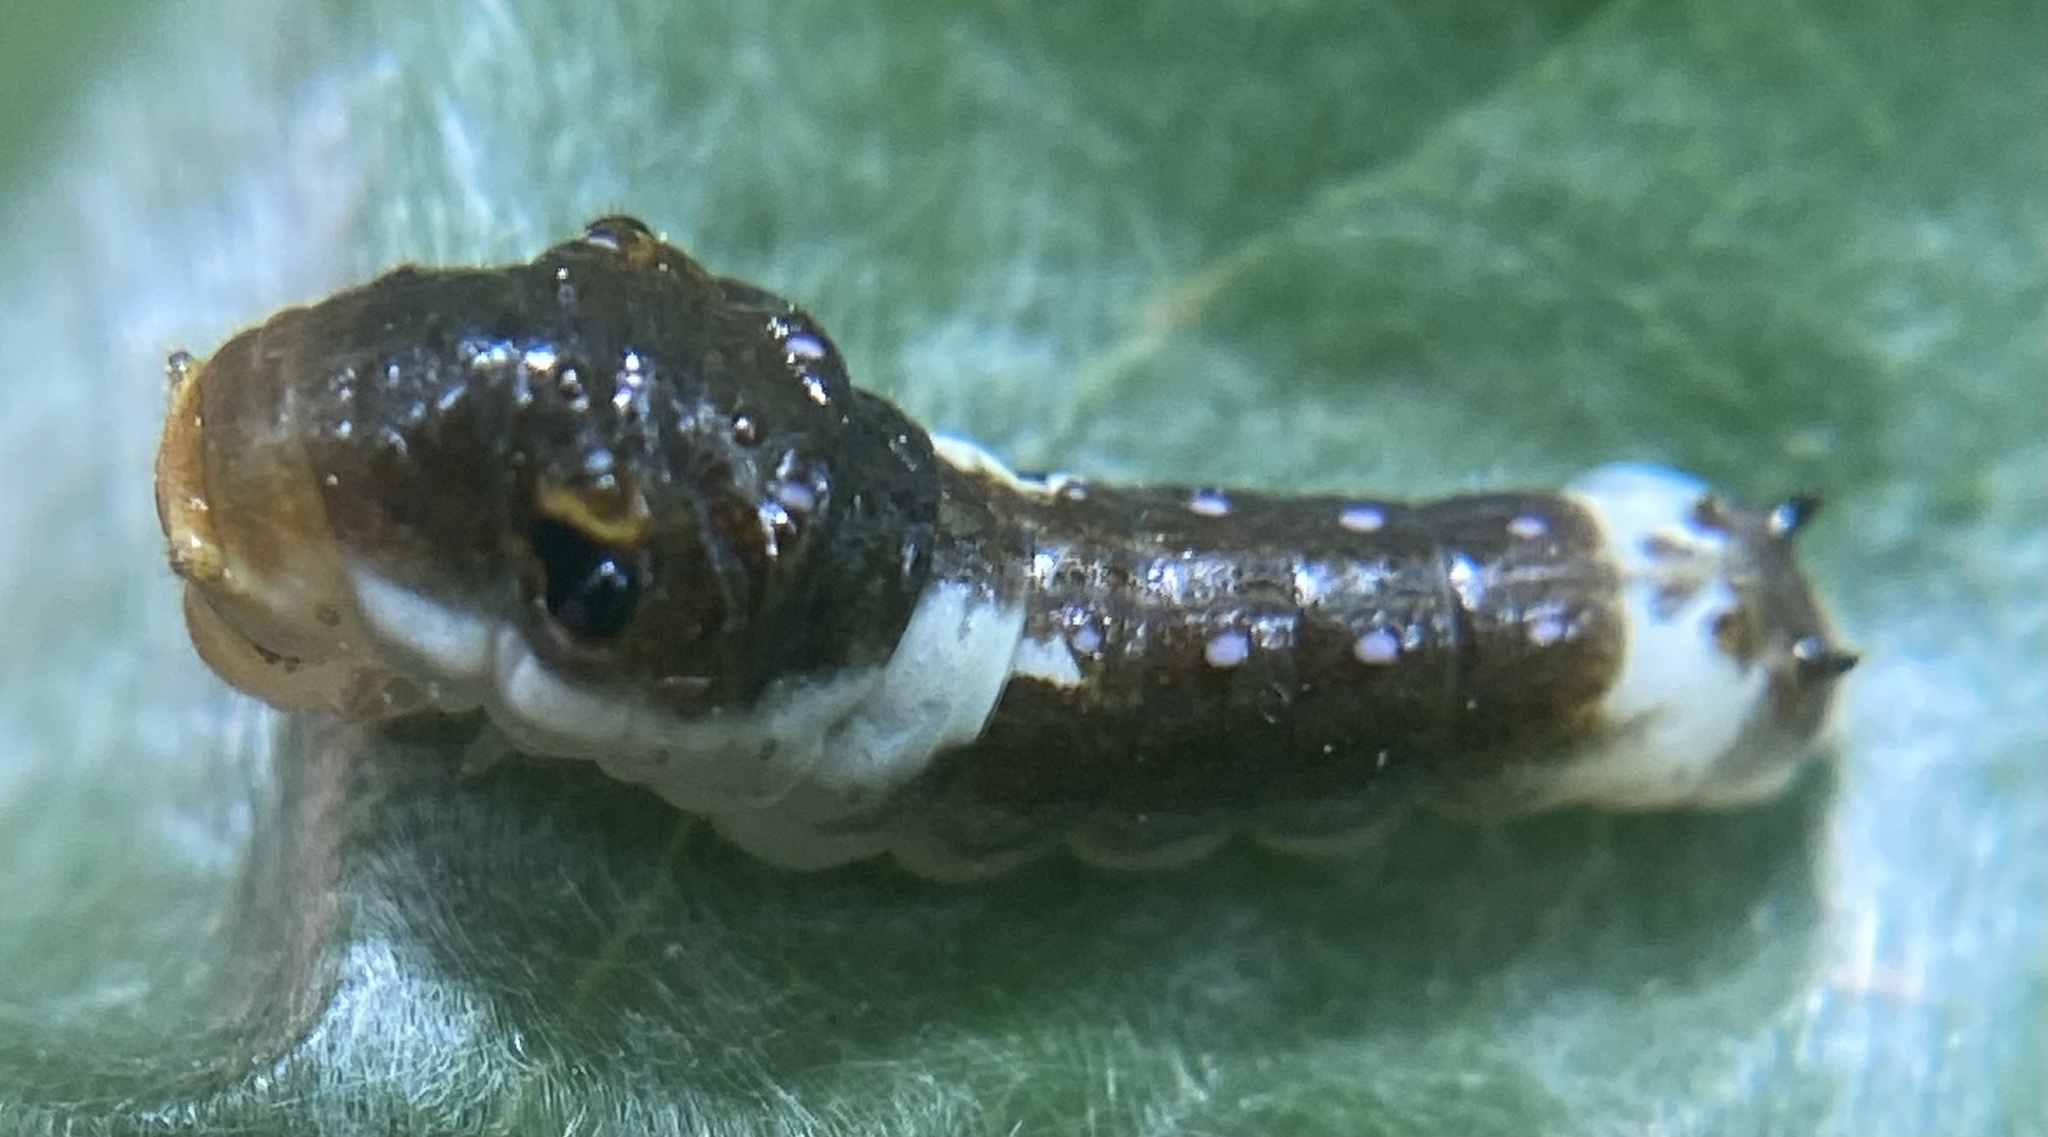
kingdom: Animalia
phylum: Arthropoda
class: Insecta
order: Lepidoptera
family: Papilionidae
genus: Papilio
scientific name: Papilio troilus
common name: Spicebush swallowtail
